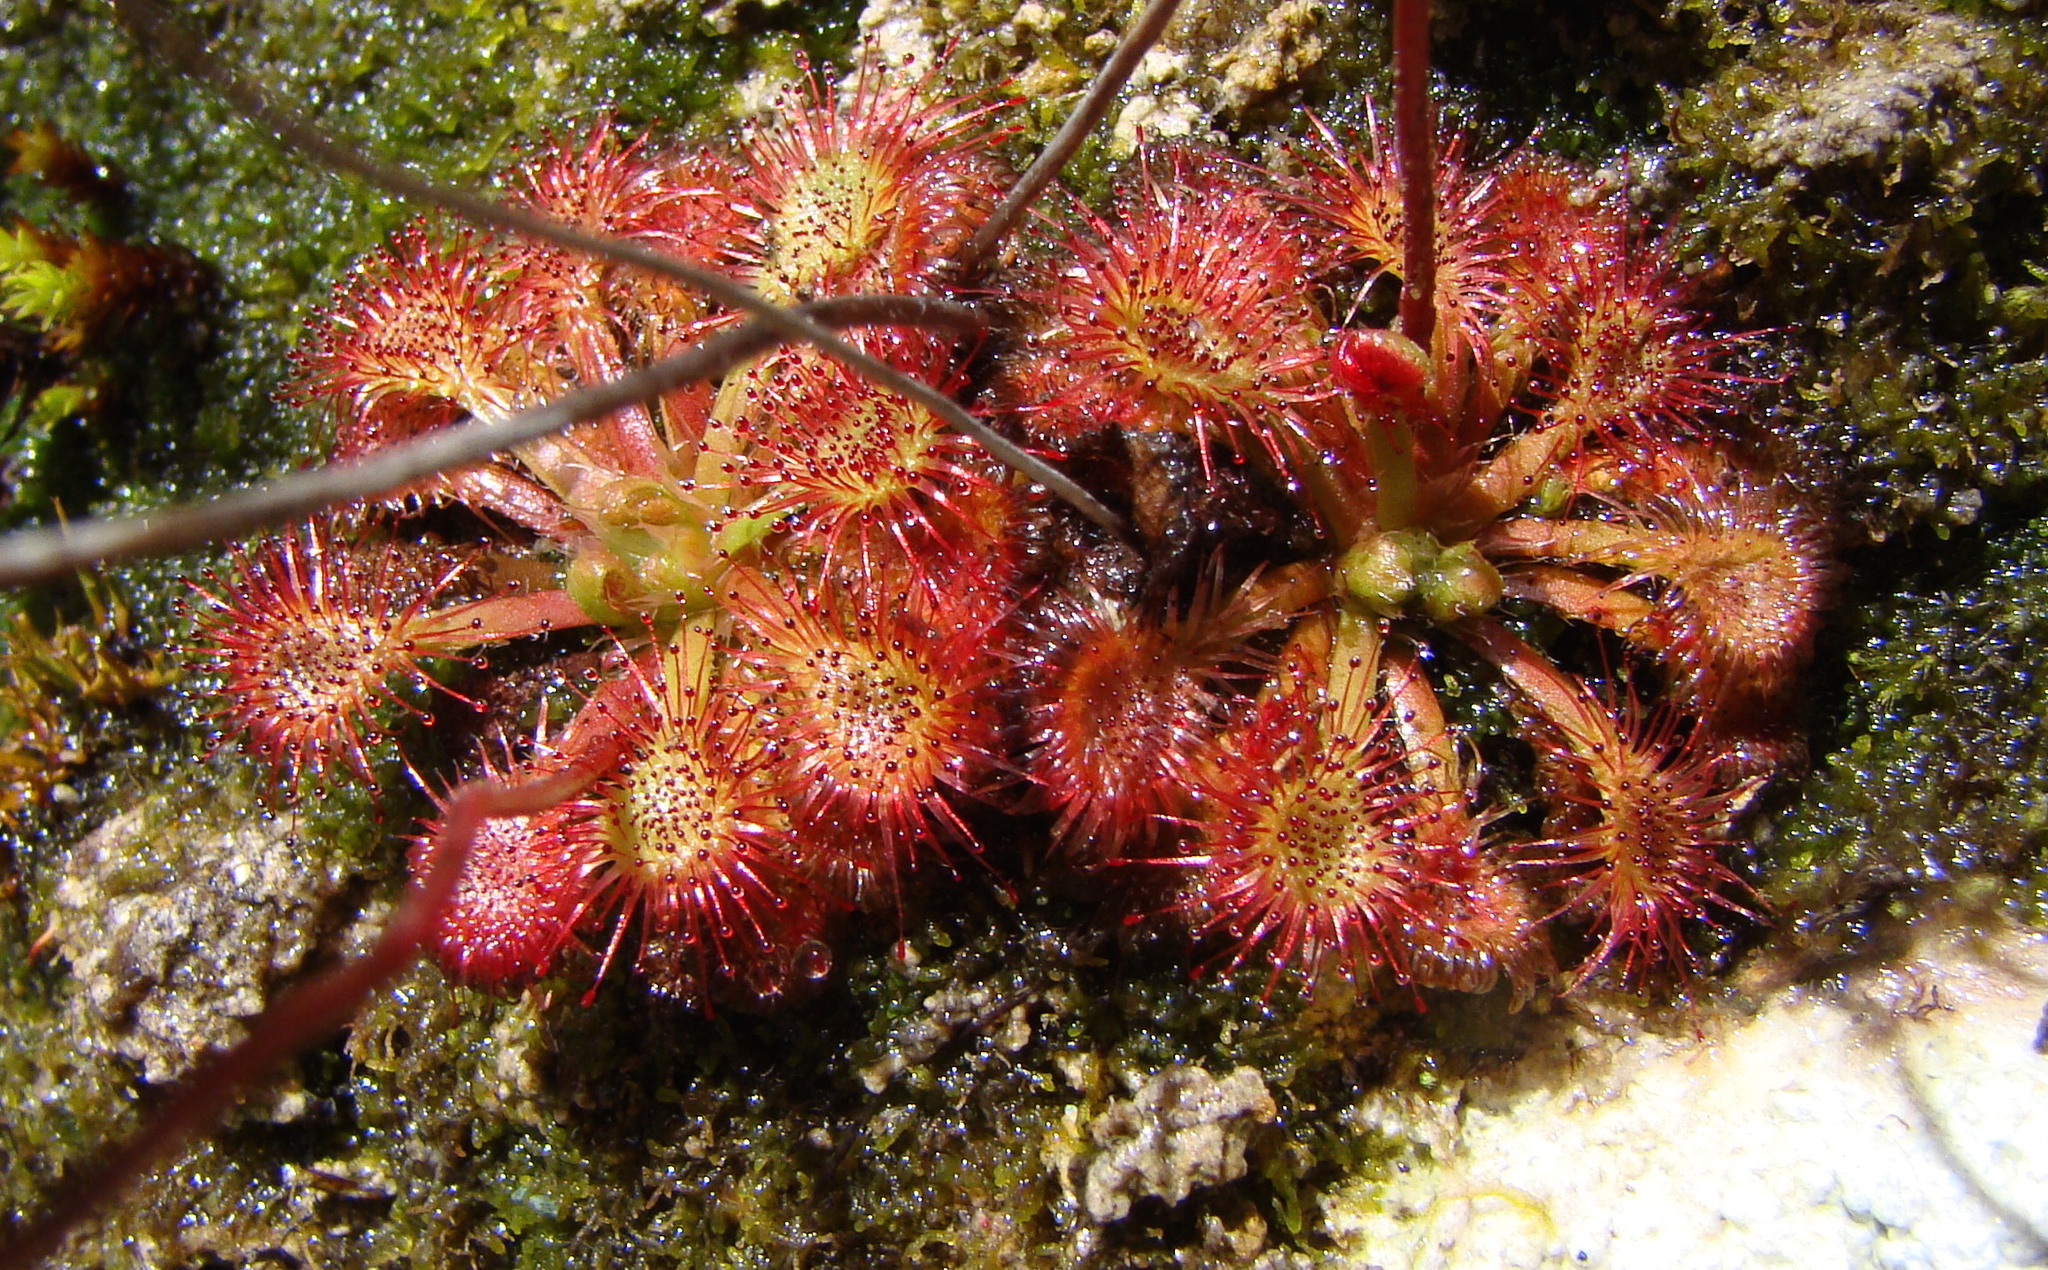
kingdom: Plantae
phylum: Tracheophyta
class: Magnoliopsida
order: Caryophyllales
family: Droseraceae
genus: Drosera
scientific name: Drosera spatulata
